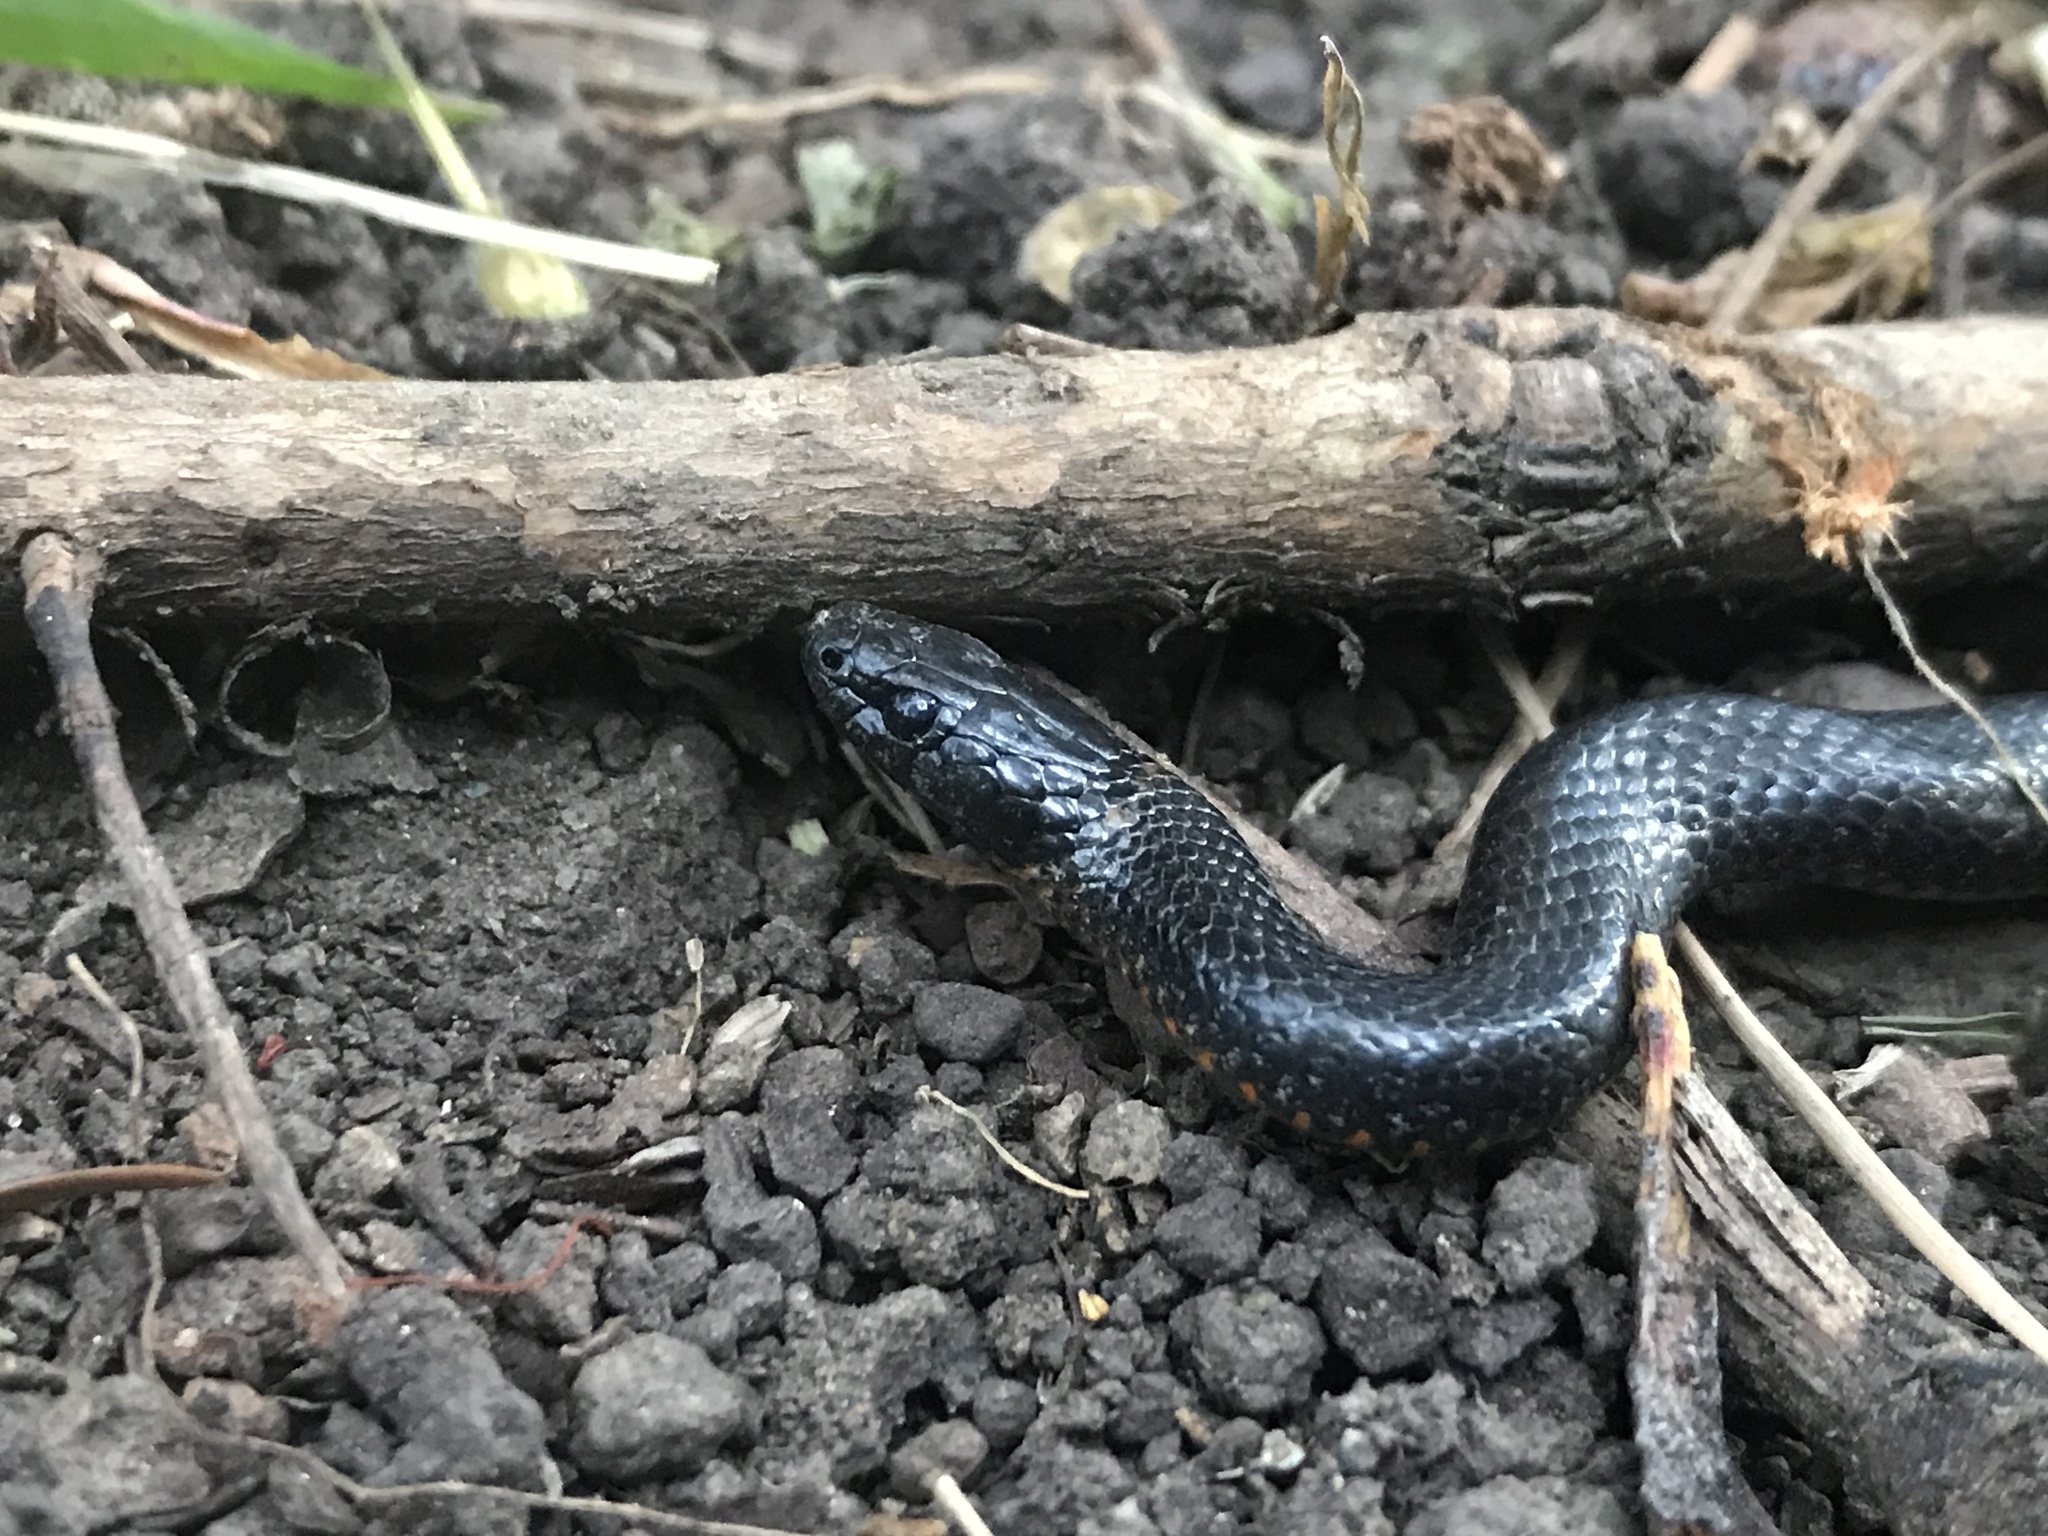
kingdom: Animalia
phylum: Chordata
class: Squamata
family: Colubridae
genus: Diadophis
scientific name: Diadophis punctatus
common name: Ringneck snake
